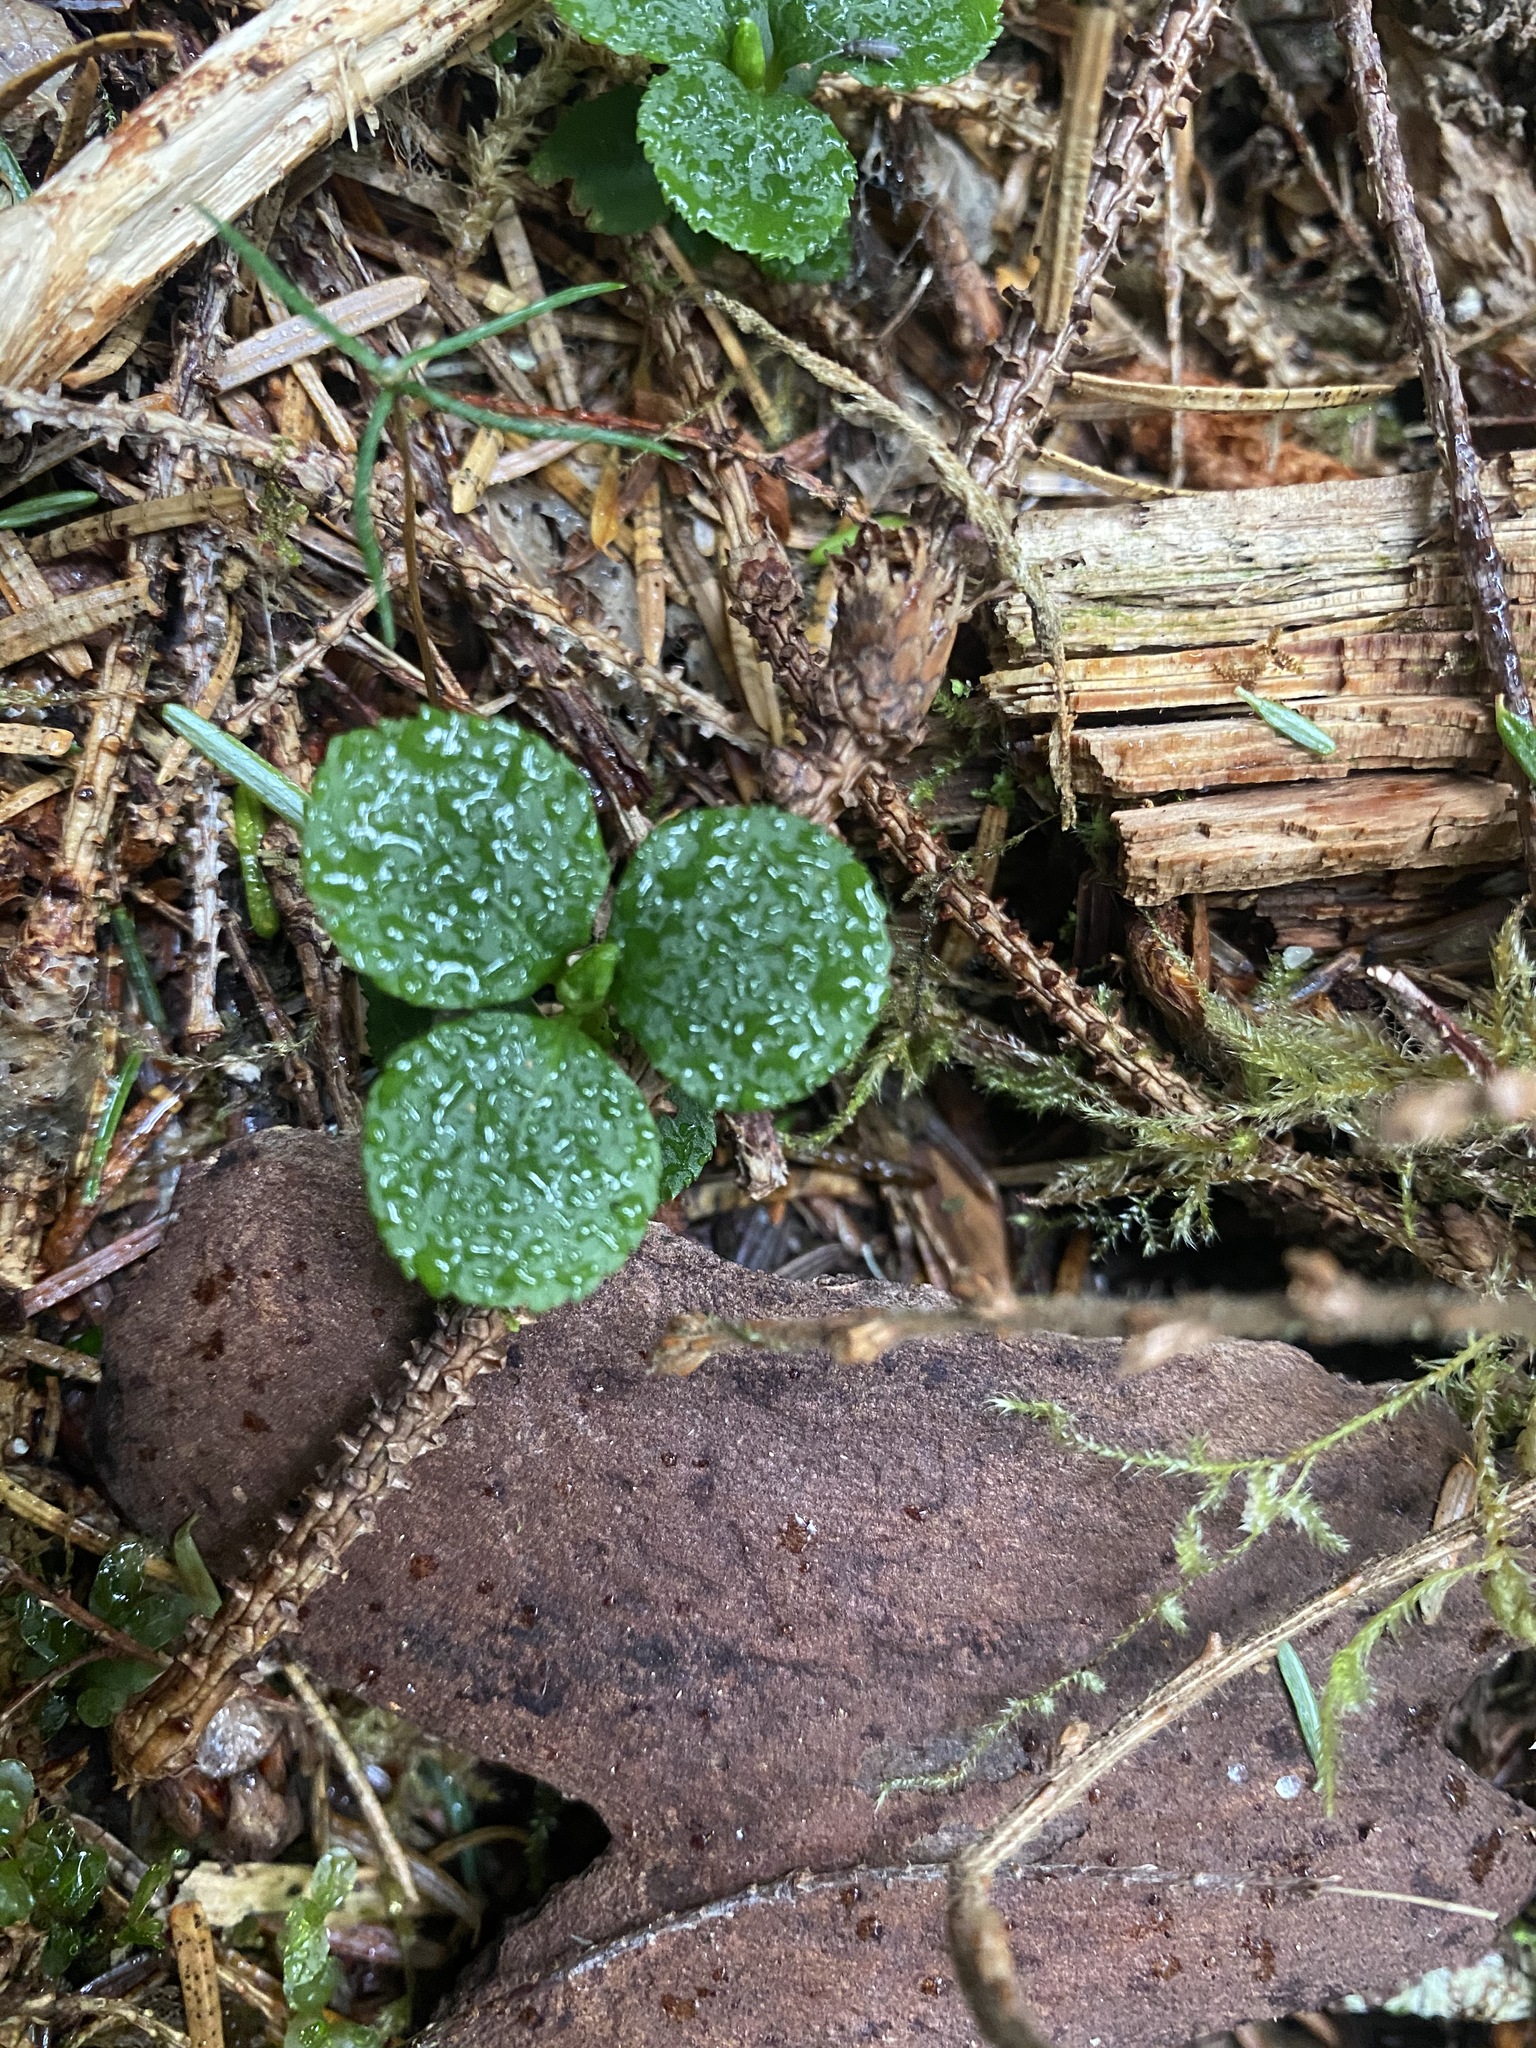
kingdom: Plantae
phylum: Tracheophyta
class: Magnoliopsida
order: Ericales
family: Ericaceae
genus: Moneses
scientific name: Moneses uniflora
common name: One-flowered wintergreen
